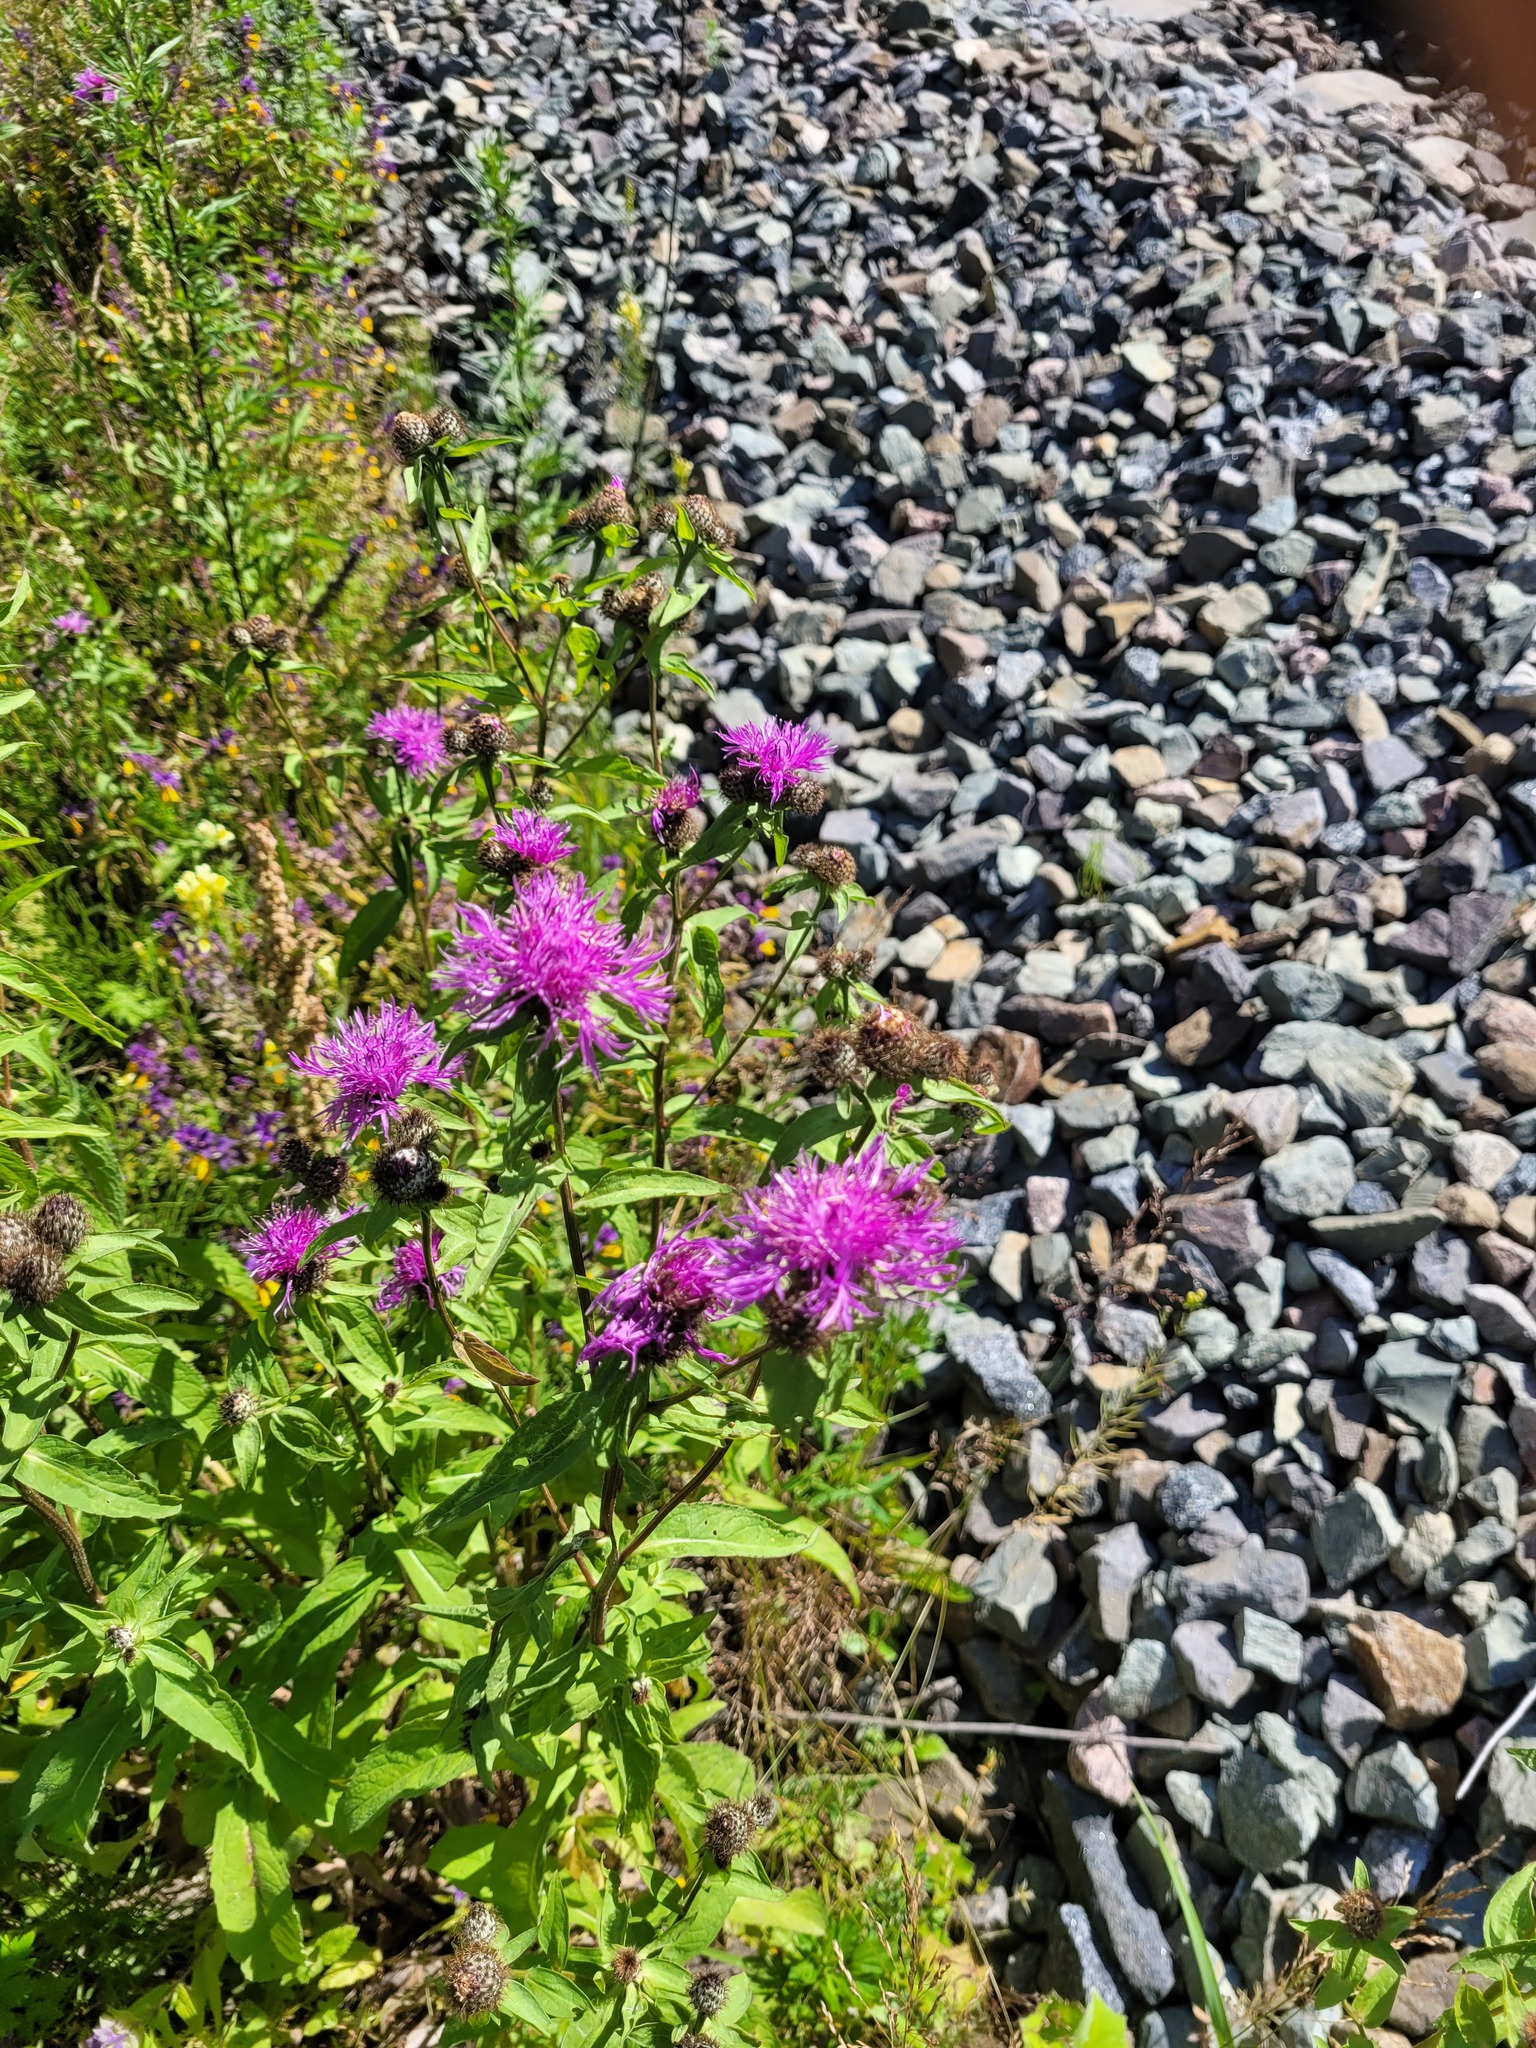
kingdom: Plantae
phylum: Tracheophyta
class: Magnoliopsida
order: Asterales
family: Asteraceae
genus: Centaurea
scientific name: Centaurea phrygia
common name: Wig knapweed
